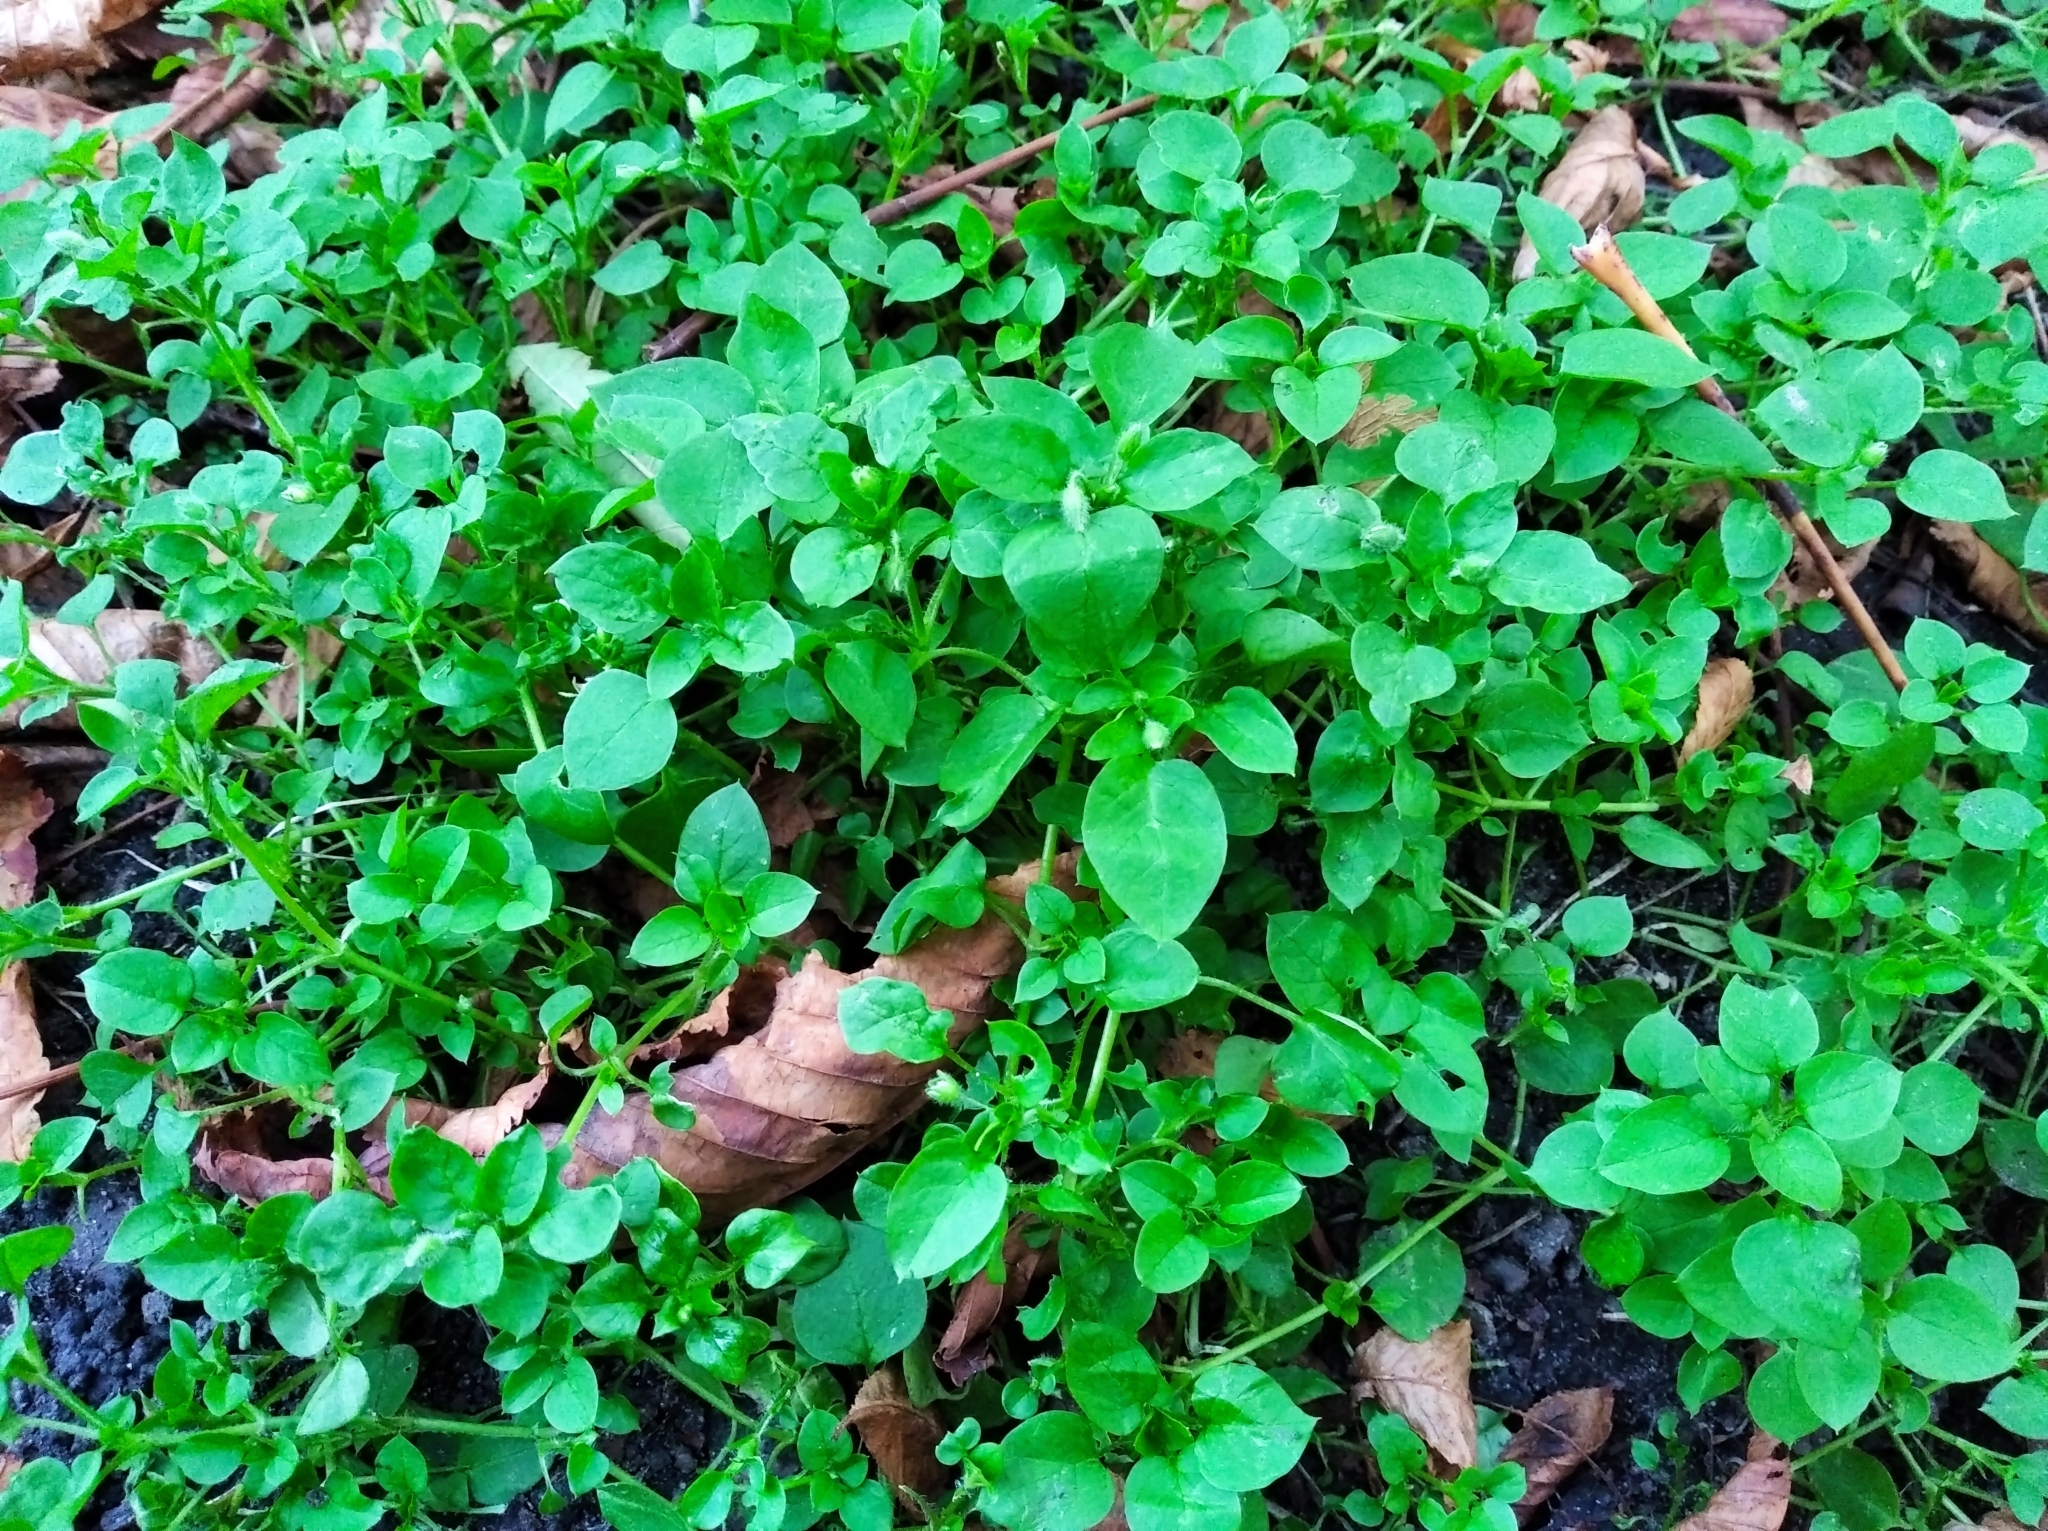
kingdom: Plantae
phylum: Tracheophyta
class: Magnoliopsida
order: Caryophyllales
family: Caryophyllaceae
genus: Stellaria
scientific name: Stellaria media
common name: Common chickweed
